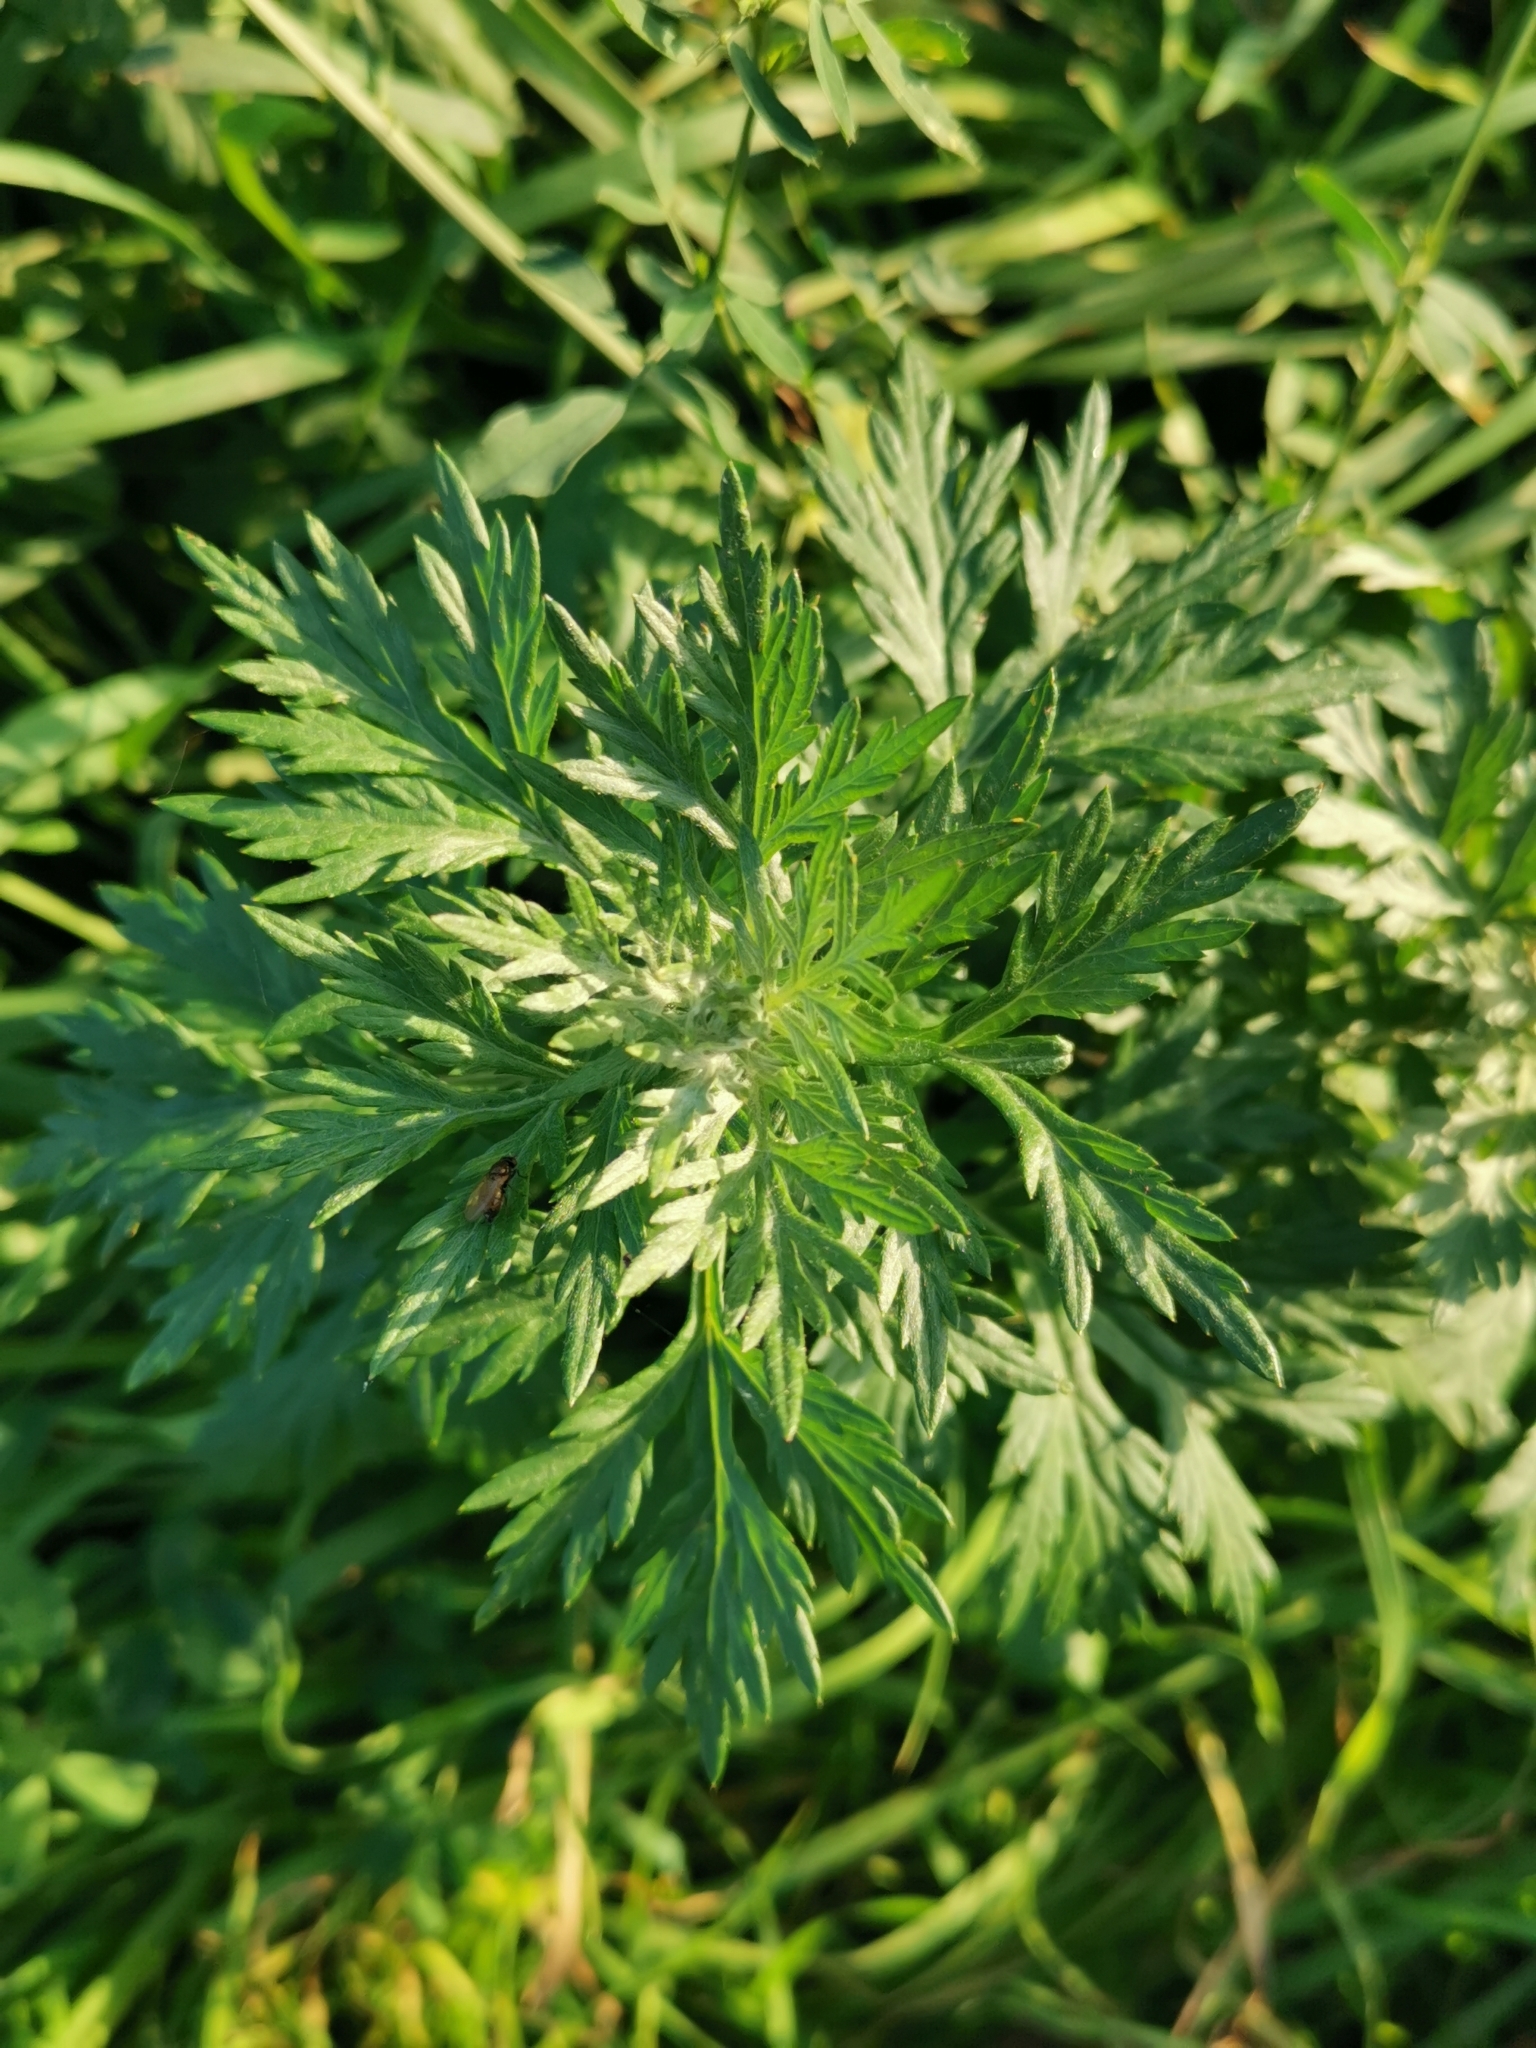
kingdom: Plantae
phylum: Tracheophyta
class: Magnoliopsida
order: Asterales
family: Asteraceae
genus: Artemisia
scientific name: Artemisia vulgaris
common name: Mugwort
